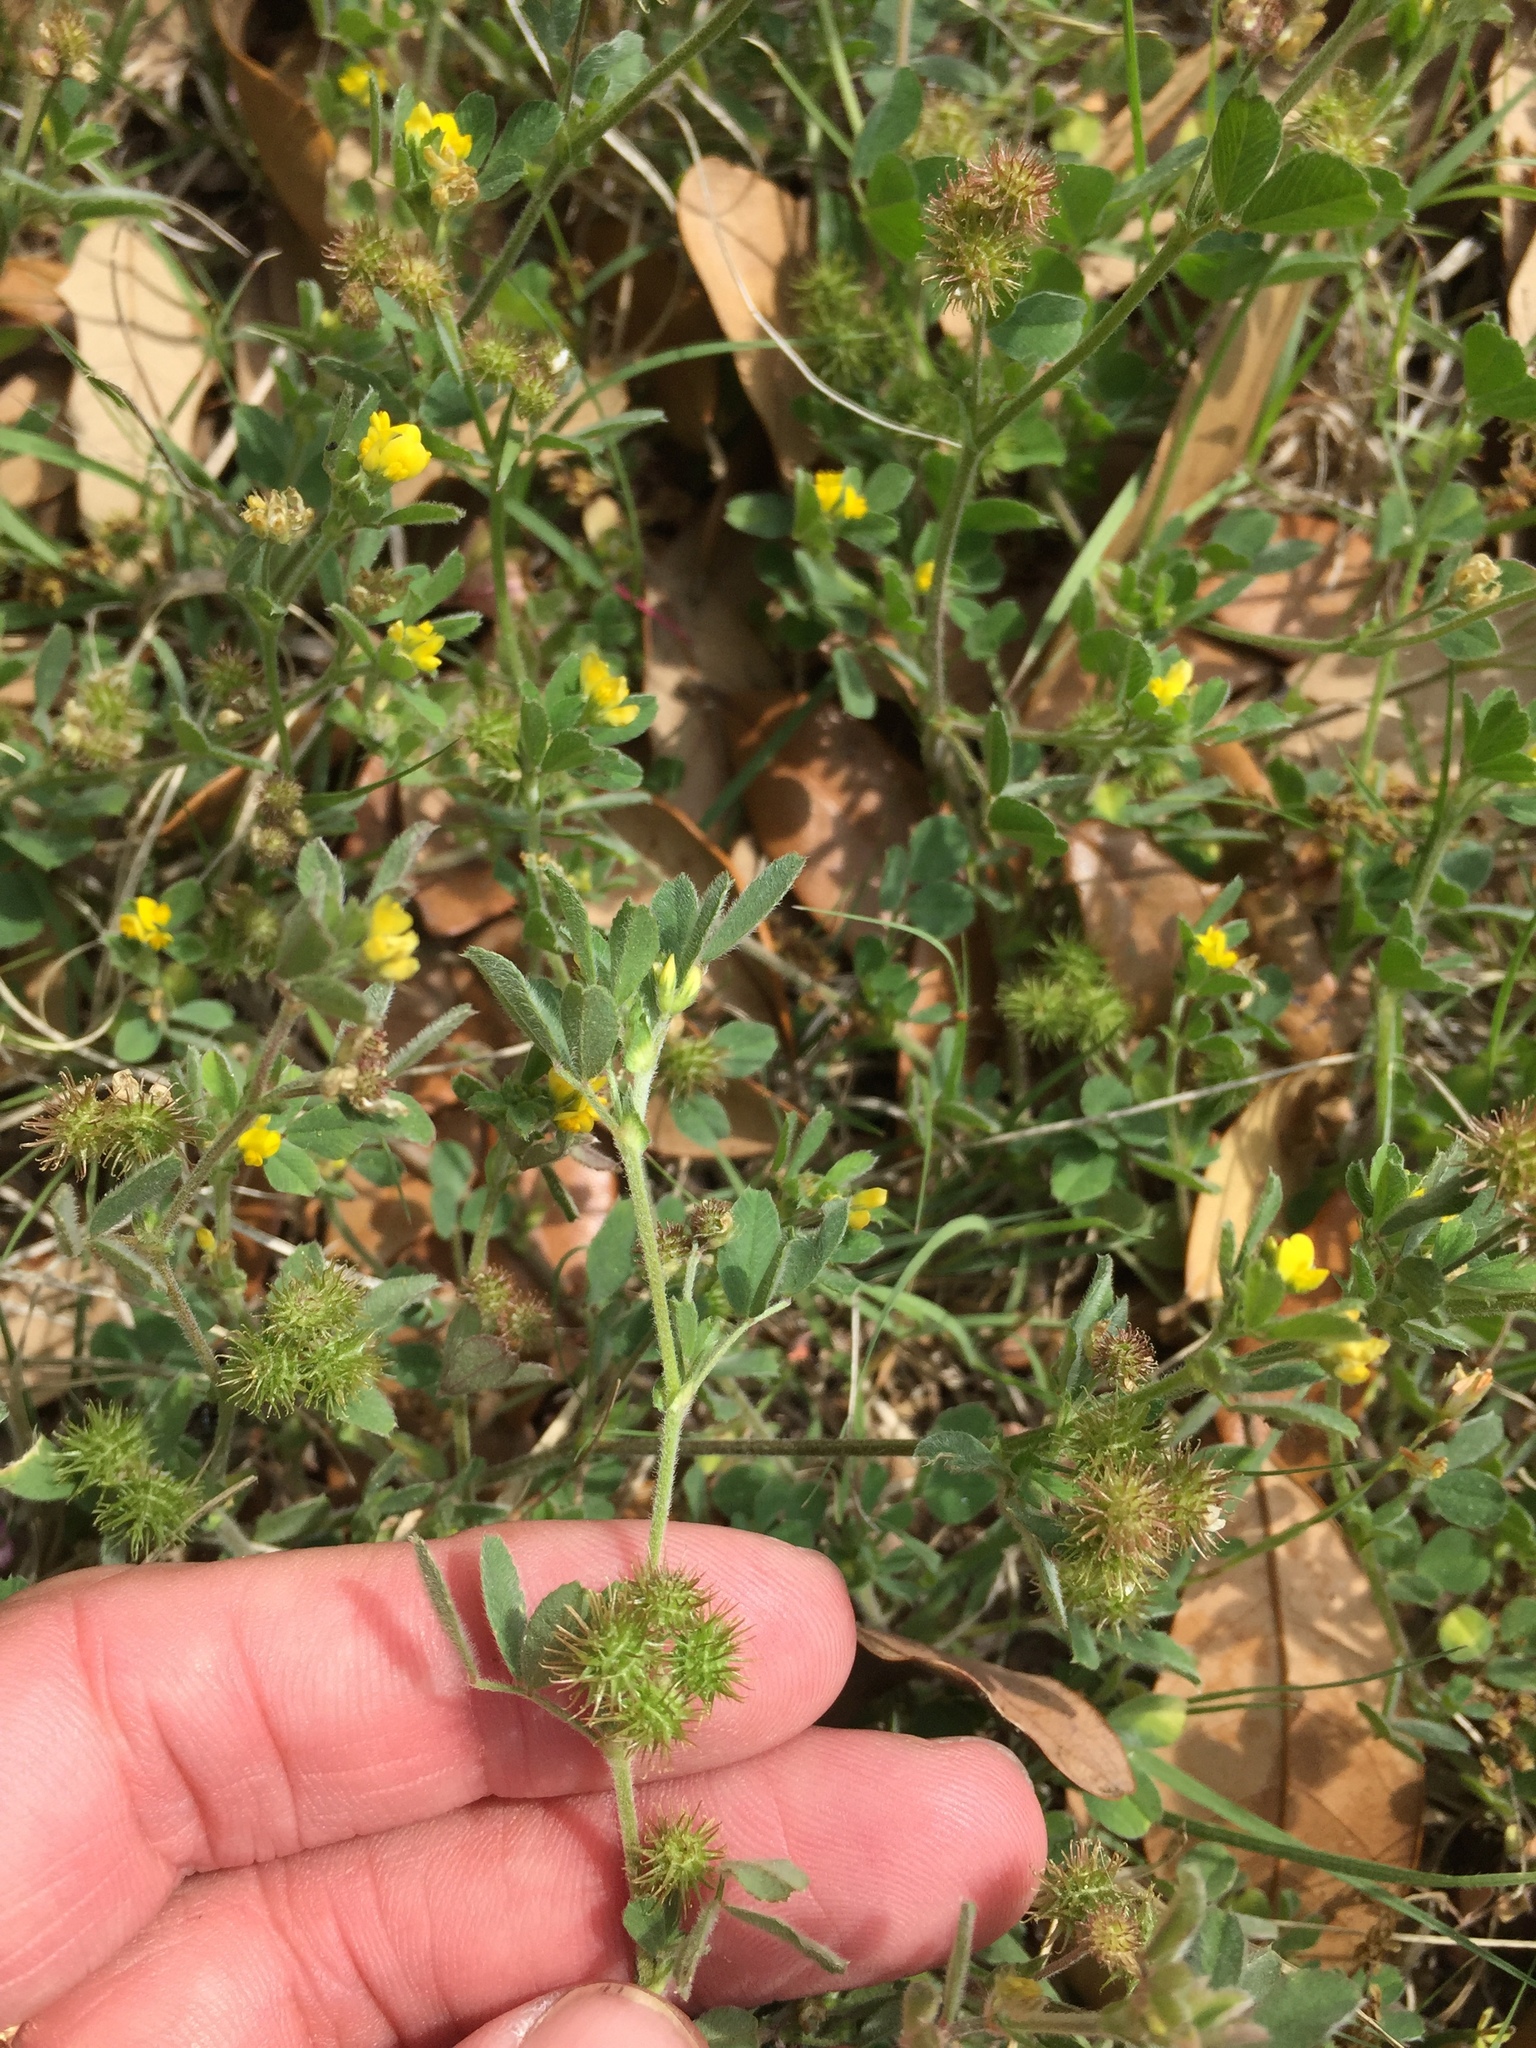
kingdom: Plantae
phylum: Tracheophyta
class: Magnoliopsida
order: Fabales
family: Fabaceae
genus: Medicago
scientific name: Medicago minima
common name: Little bur-clover
